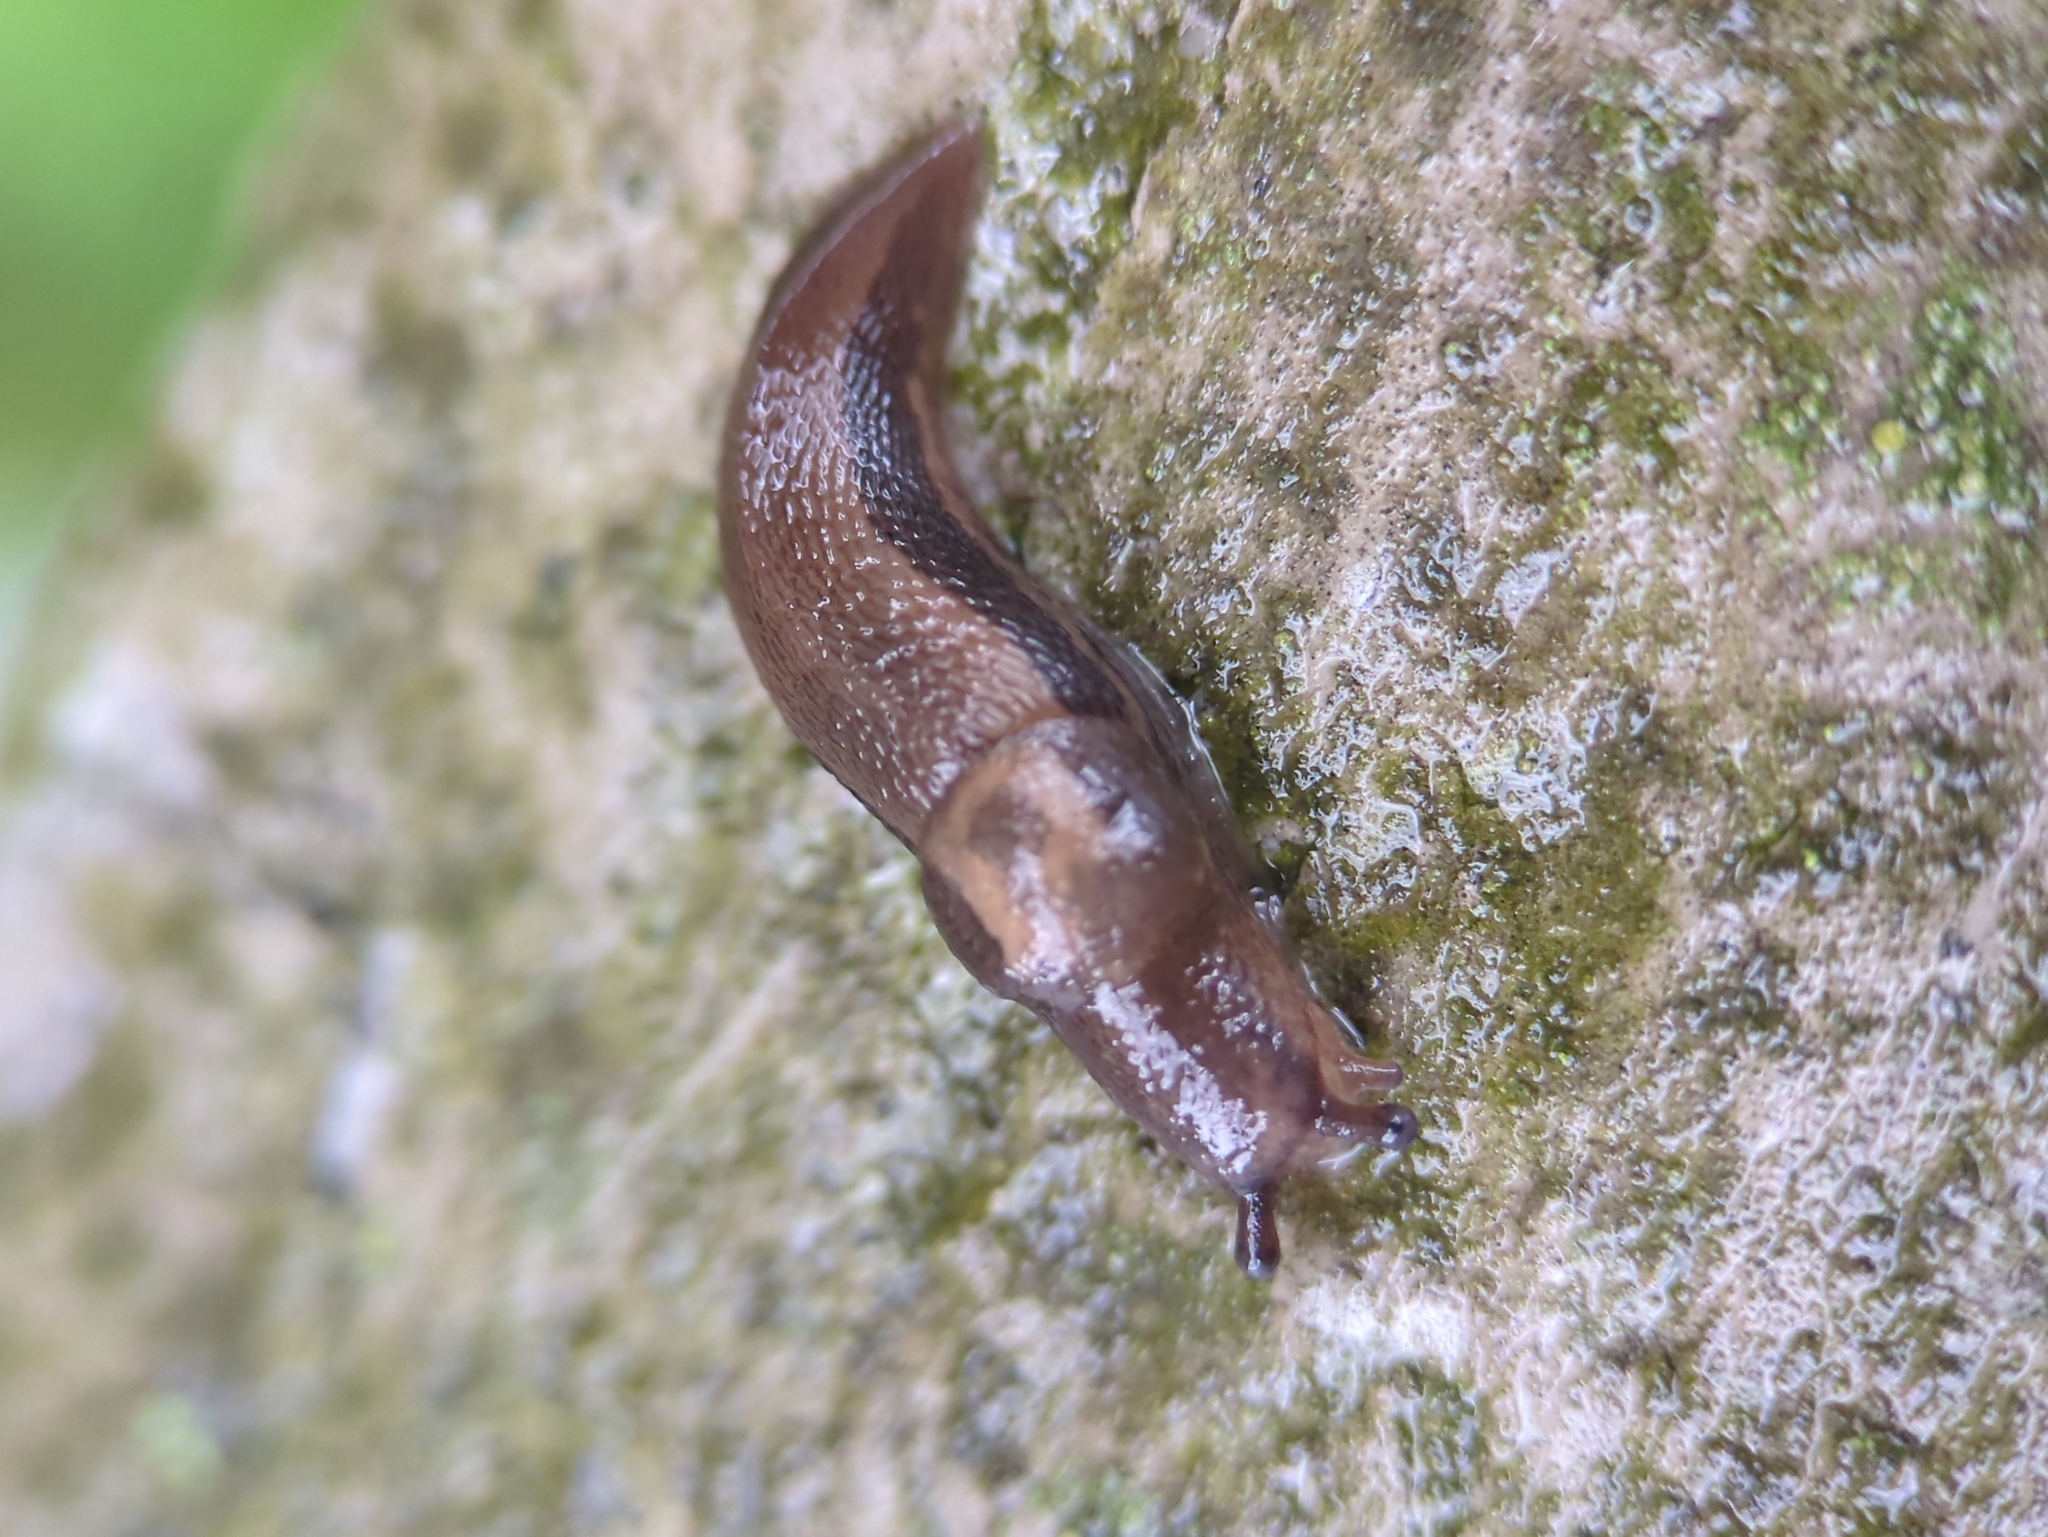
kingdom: Animalia
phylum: Mollusca
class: Gastropoda
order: Stylommatophora
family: Limacidae
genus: Limax
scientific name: Limax maximus
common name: Great grey slug
